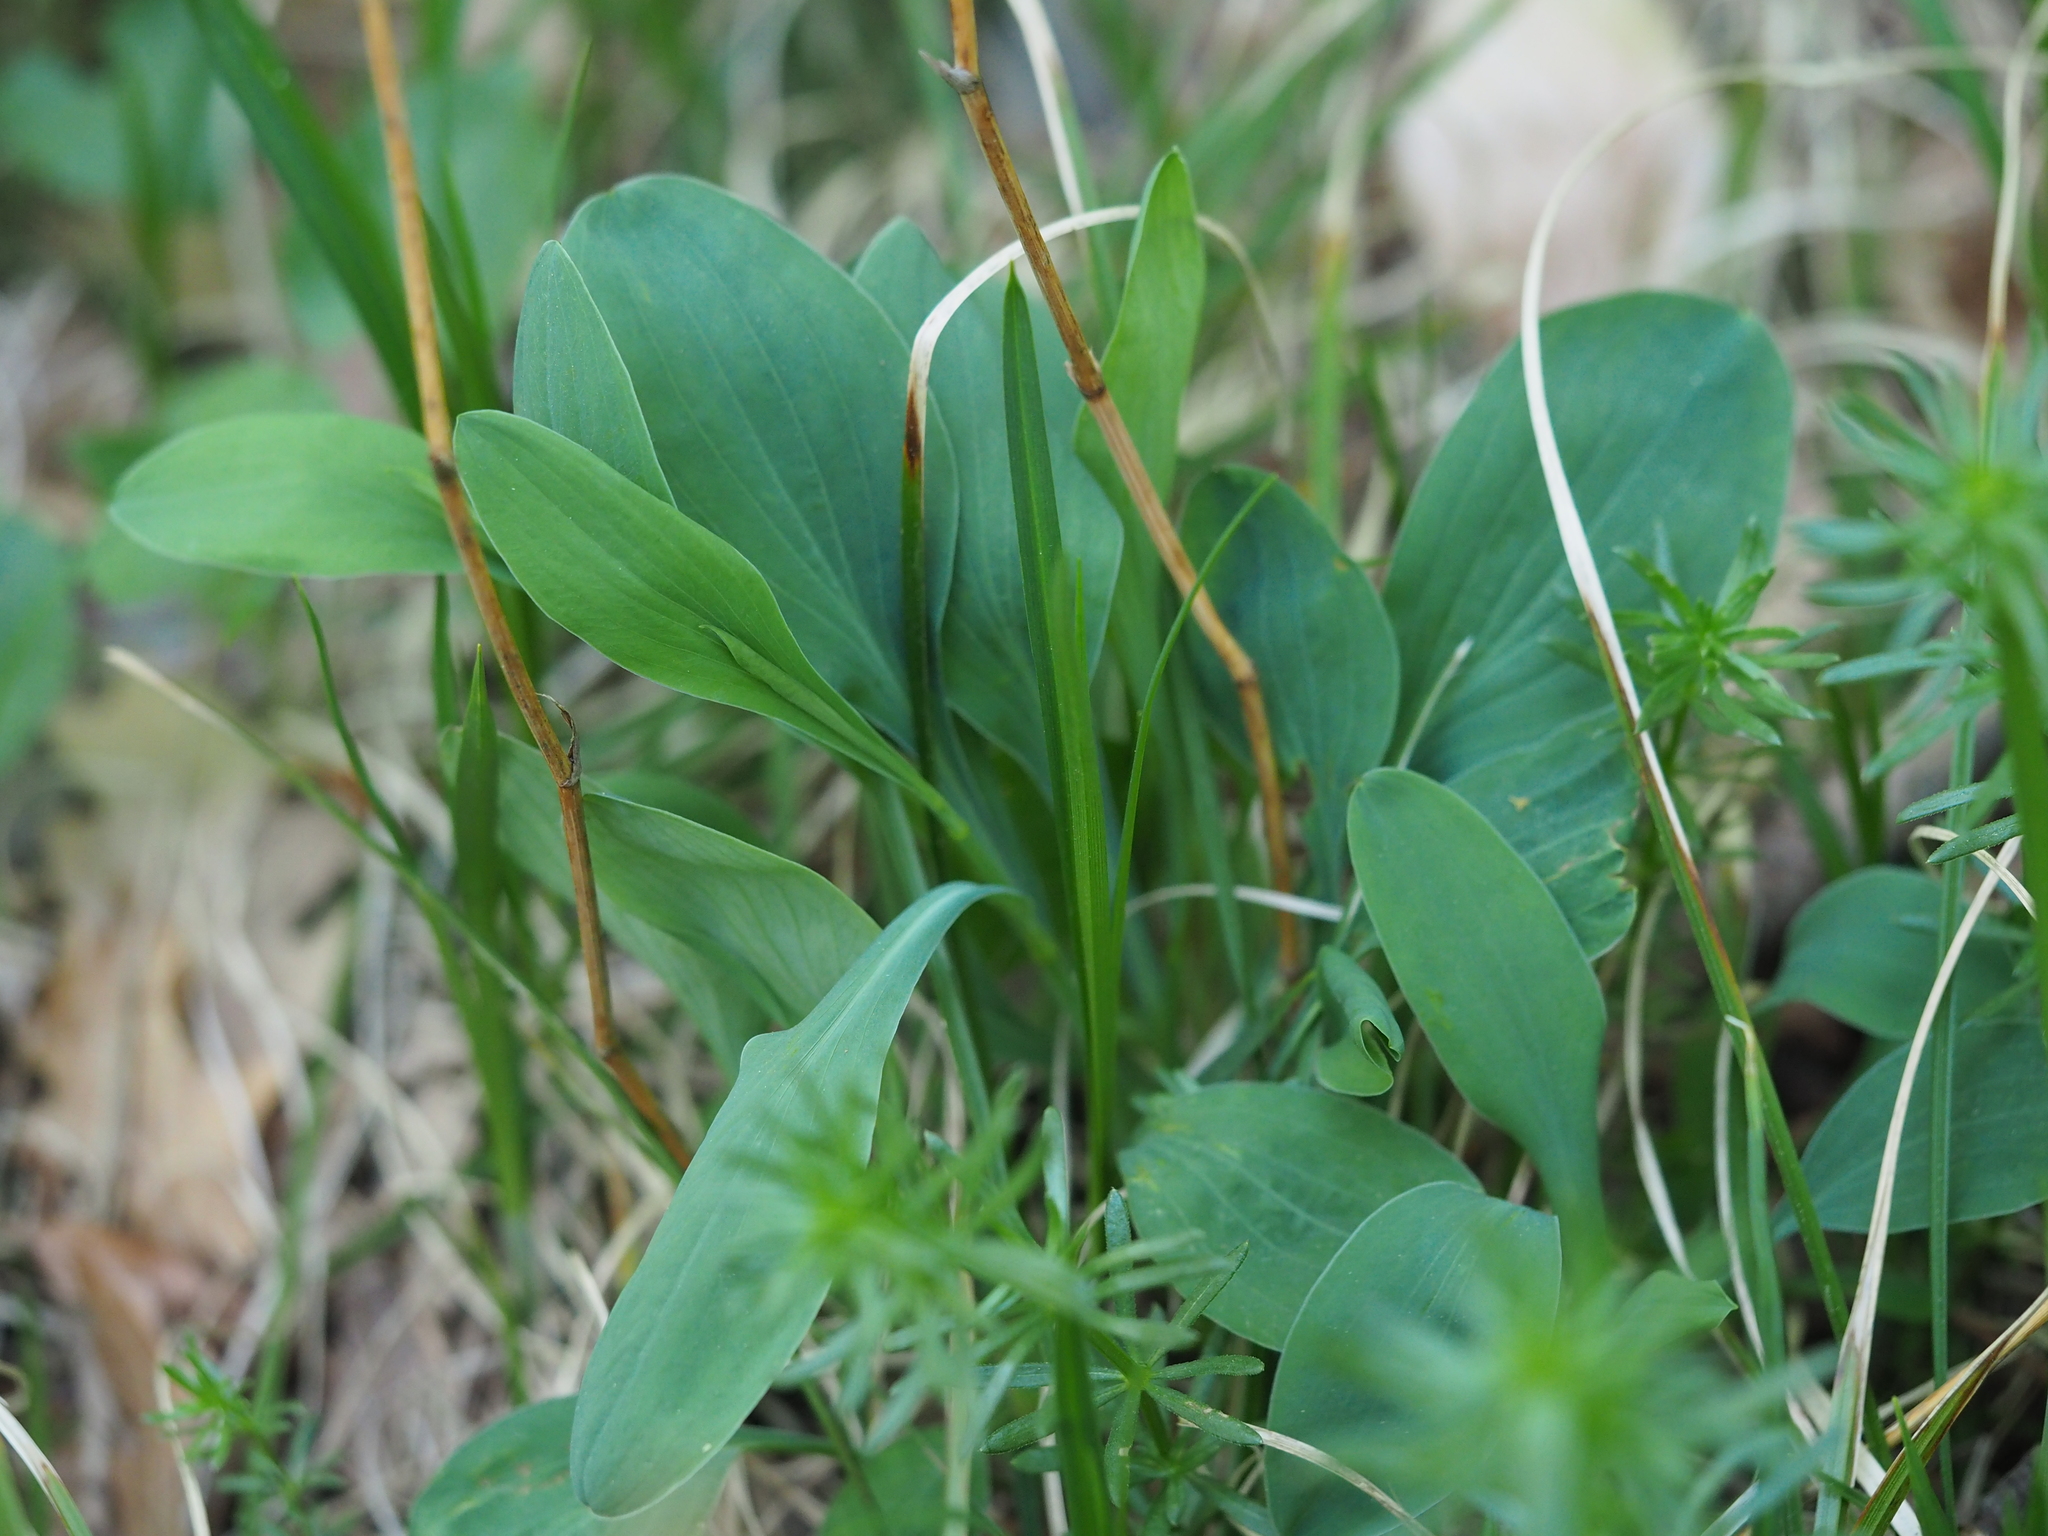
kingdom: Plantae
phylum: Tracheophyta
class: Magnoliopsida
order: Apiales
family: Apiaceae
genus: Bupleurum
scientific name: Bupleurum falcatum
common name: Sickle-leaved hare's-ear
